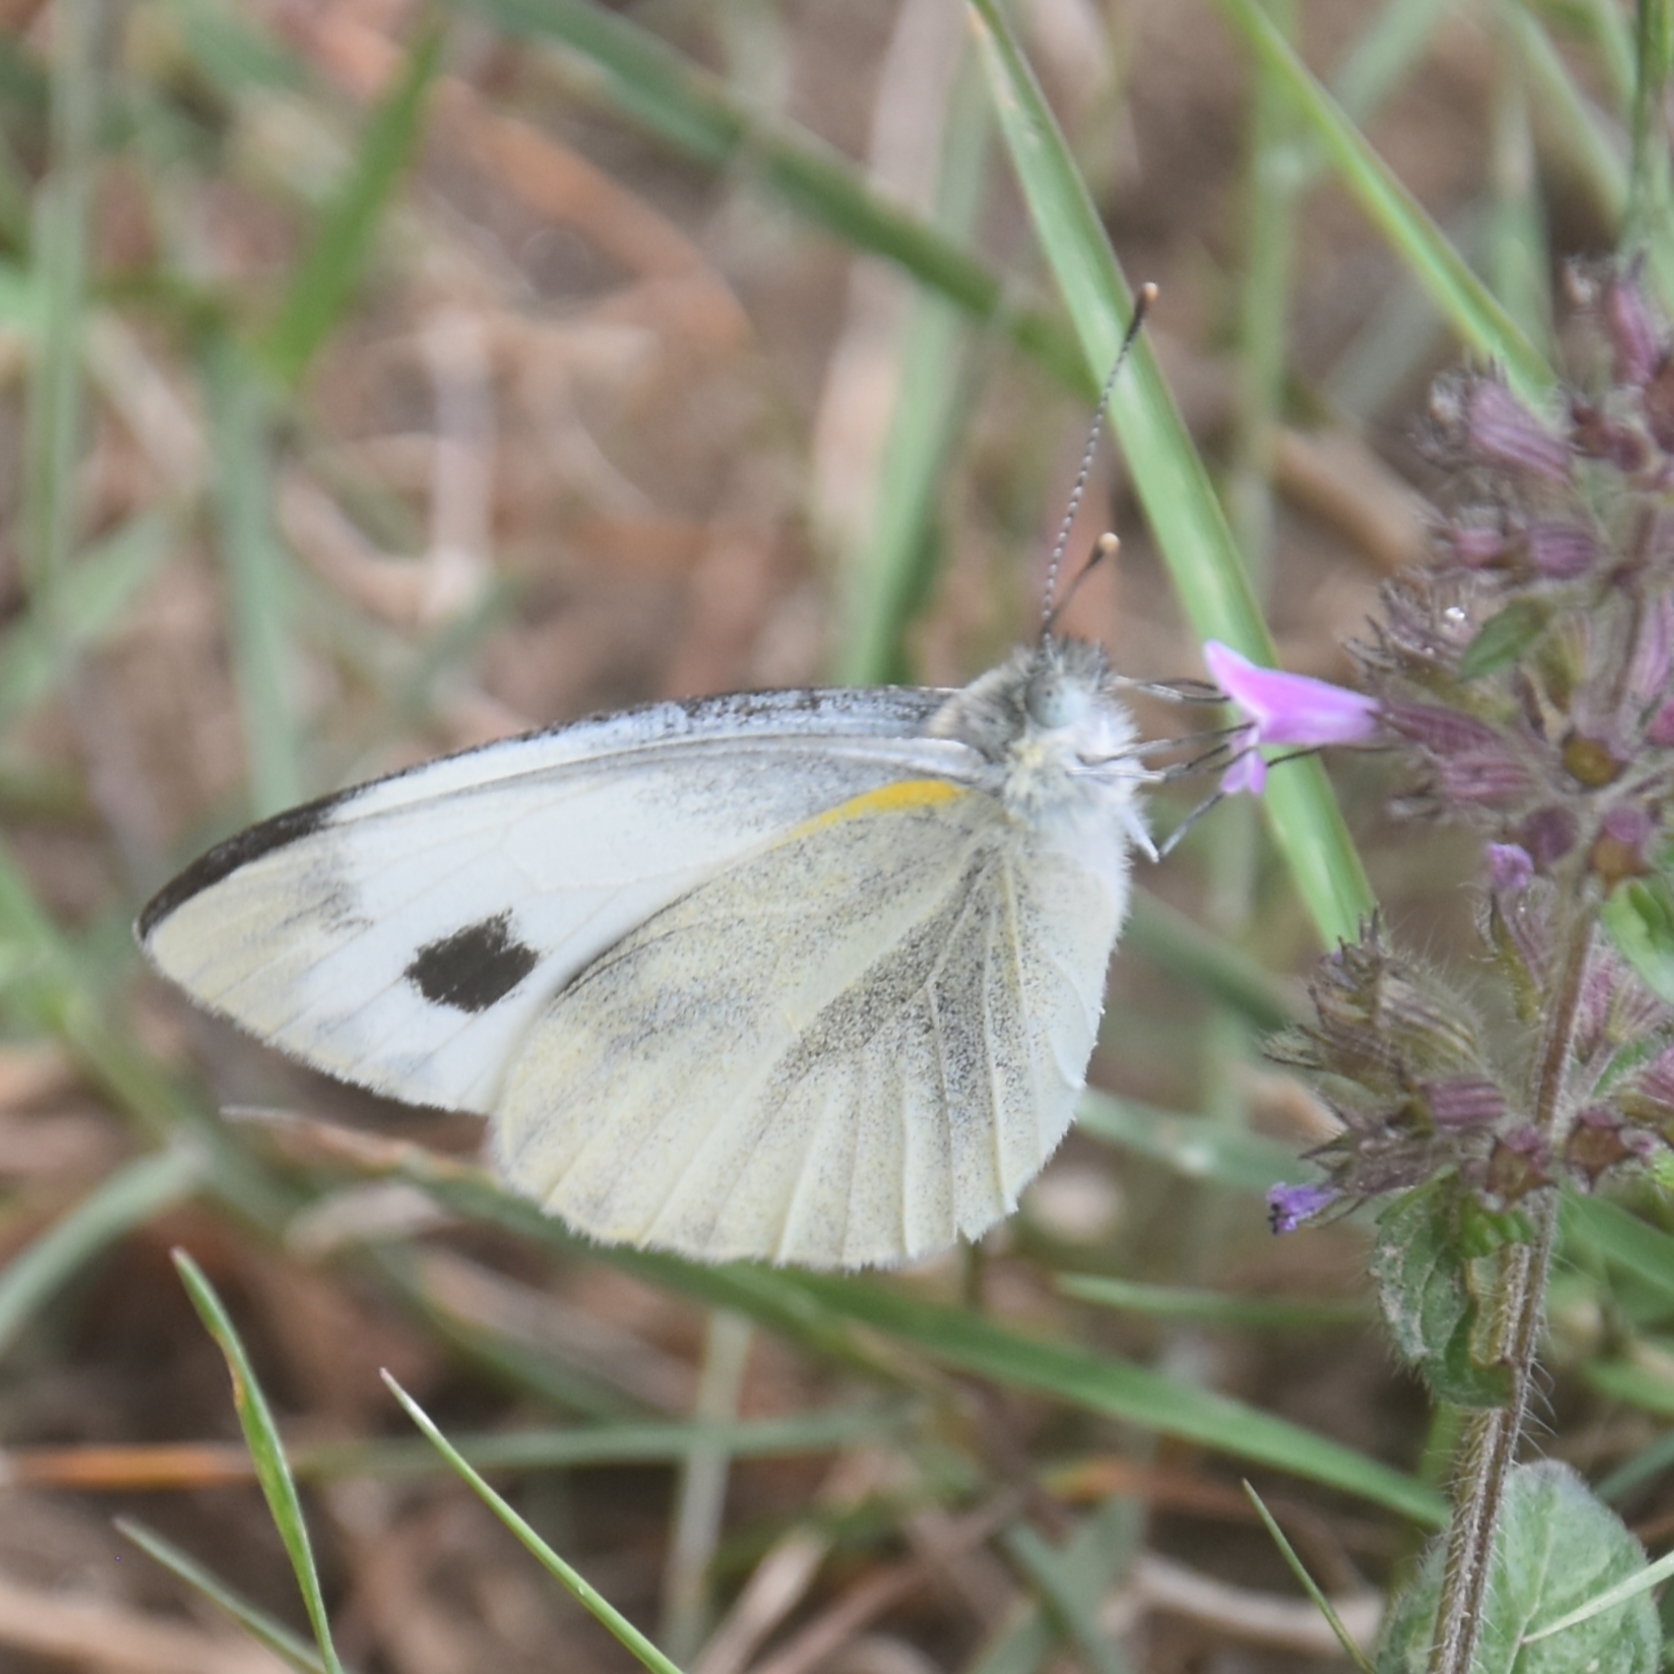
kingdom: Animalia
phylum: Arthropoda
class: Insecta
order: Lepidoptera
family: Pieridae
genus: Pieris
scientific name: Pieris canidia
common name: Indian cabbage white
